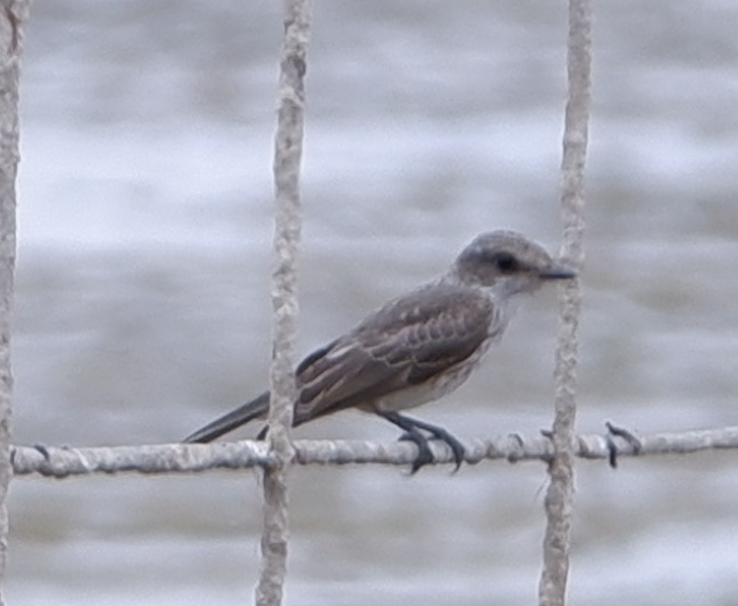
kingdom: Animalia
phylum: Chordata
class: Aves
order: Passeriformes
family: Tyrannidae
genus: Pyrocephalus
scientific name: Pyrocephalus rubinus
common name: Vermilion flycatcher
